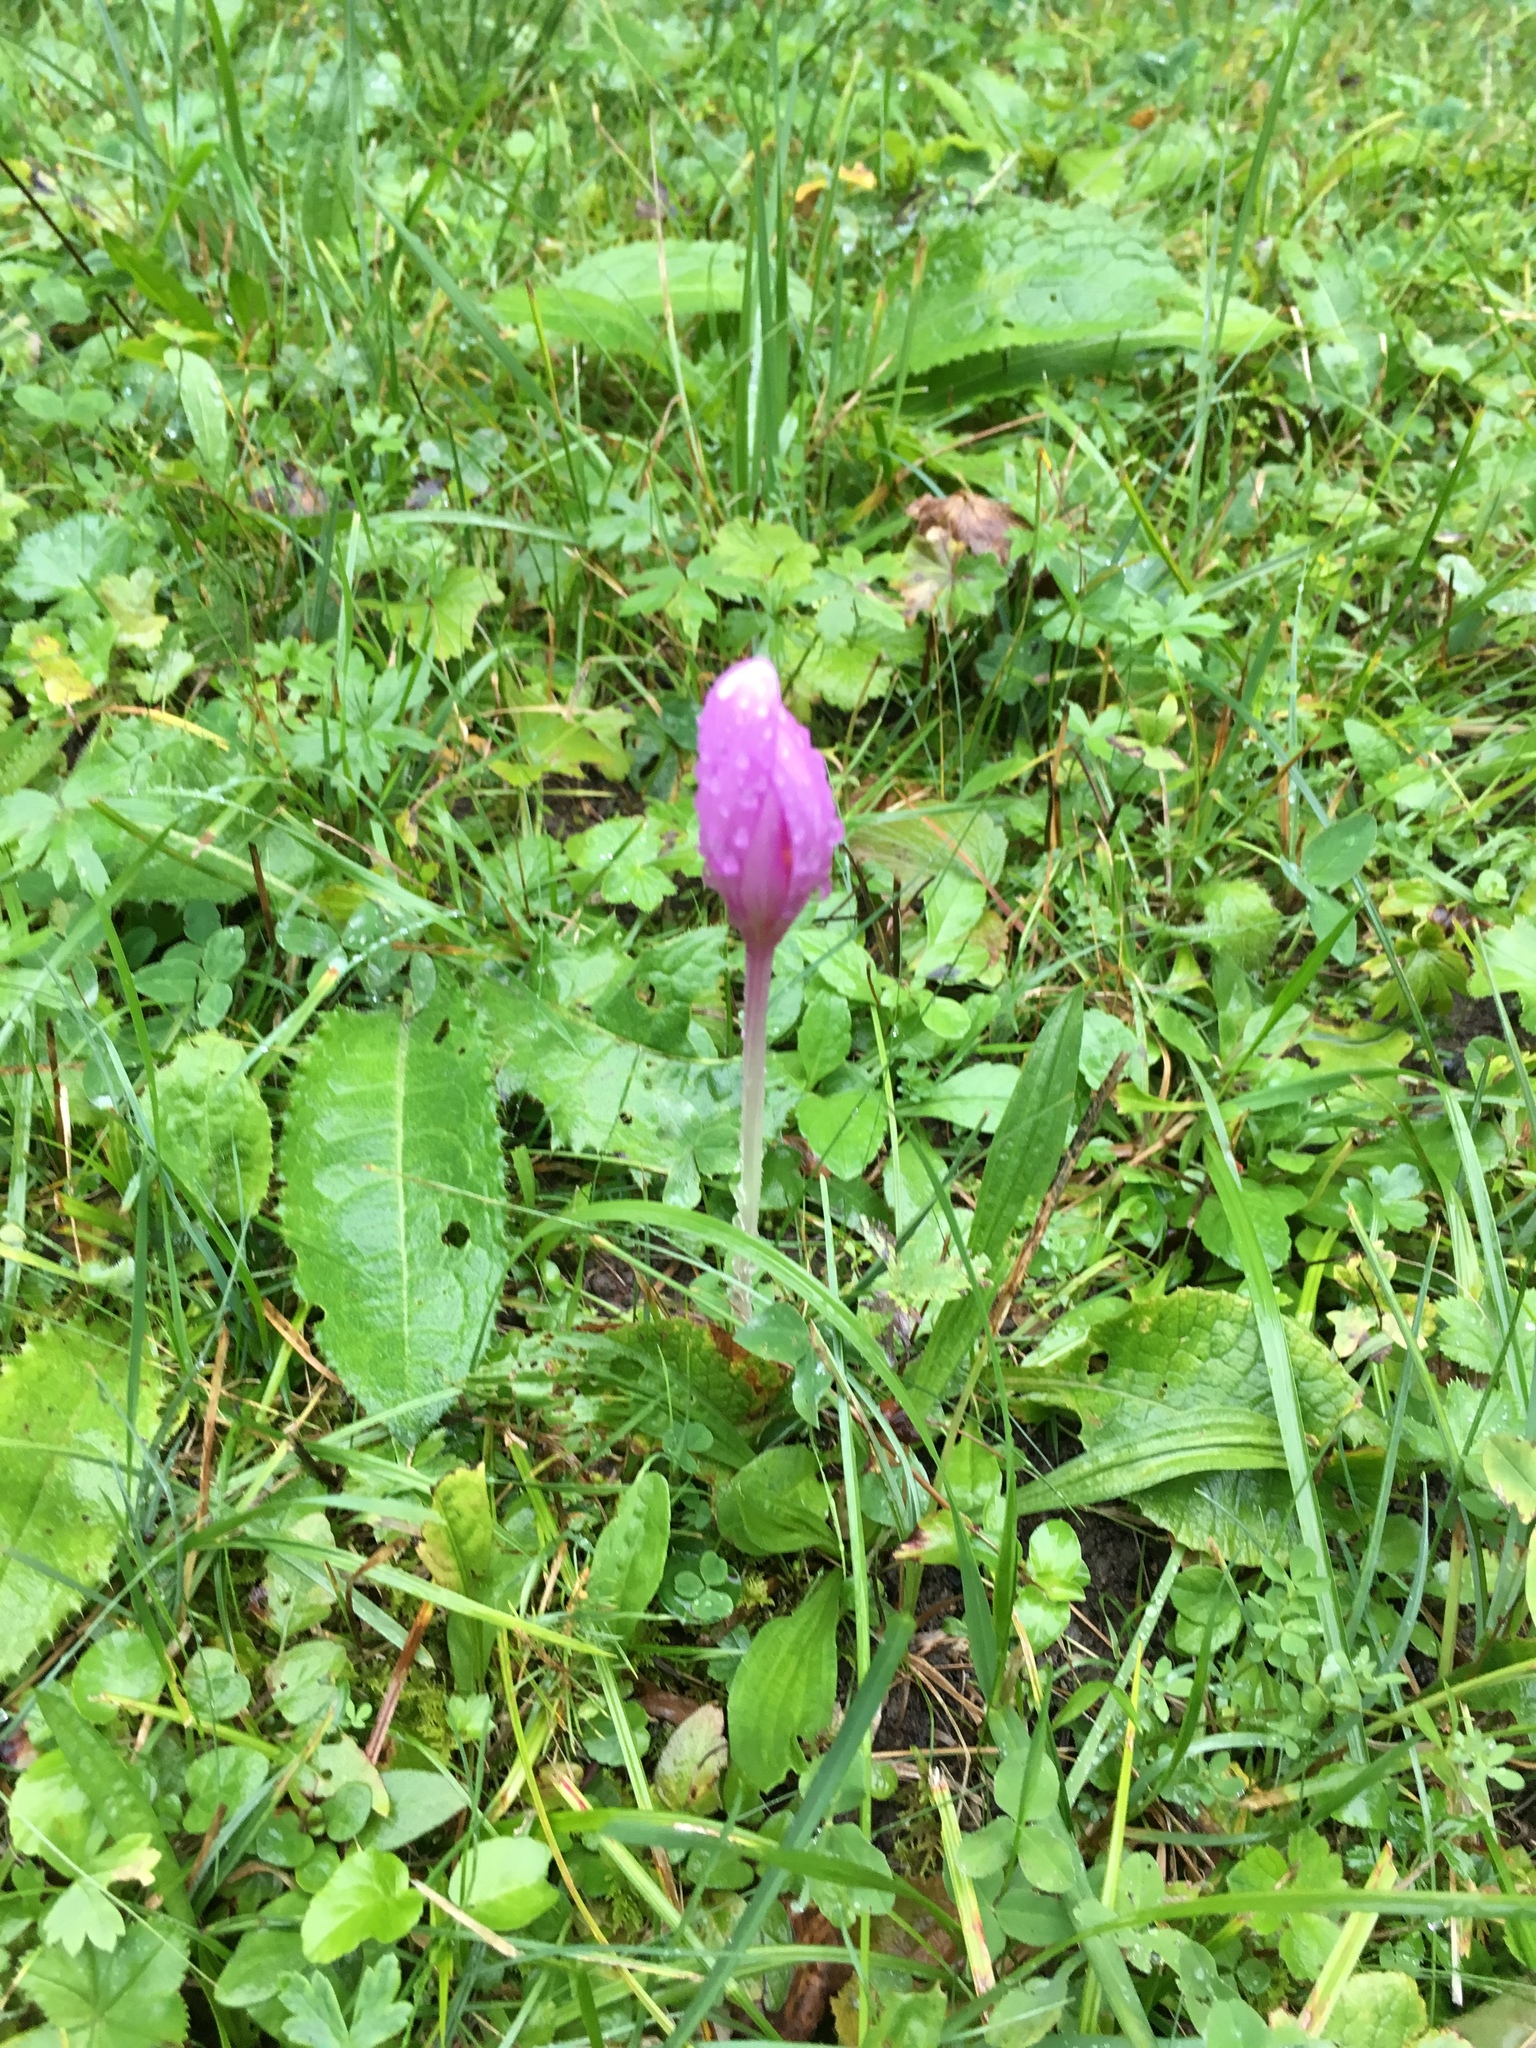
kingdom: Plantae
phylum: Tracheophyta
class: Liliopsida
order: Liliales
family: Colchicaceae
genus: Colchicum
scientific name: Colchicum autumnale
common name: Autumn crocus
